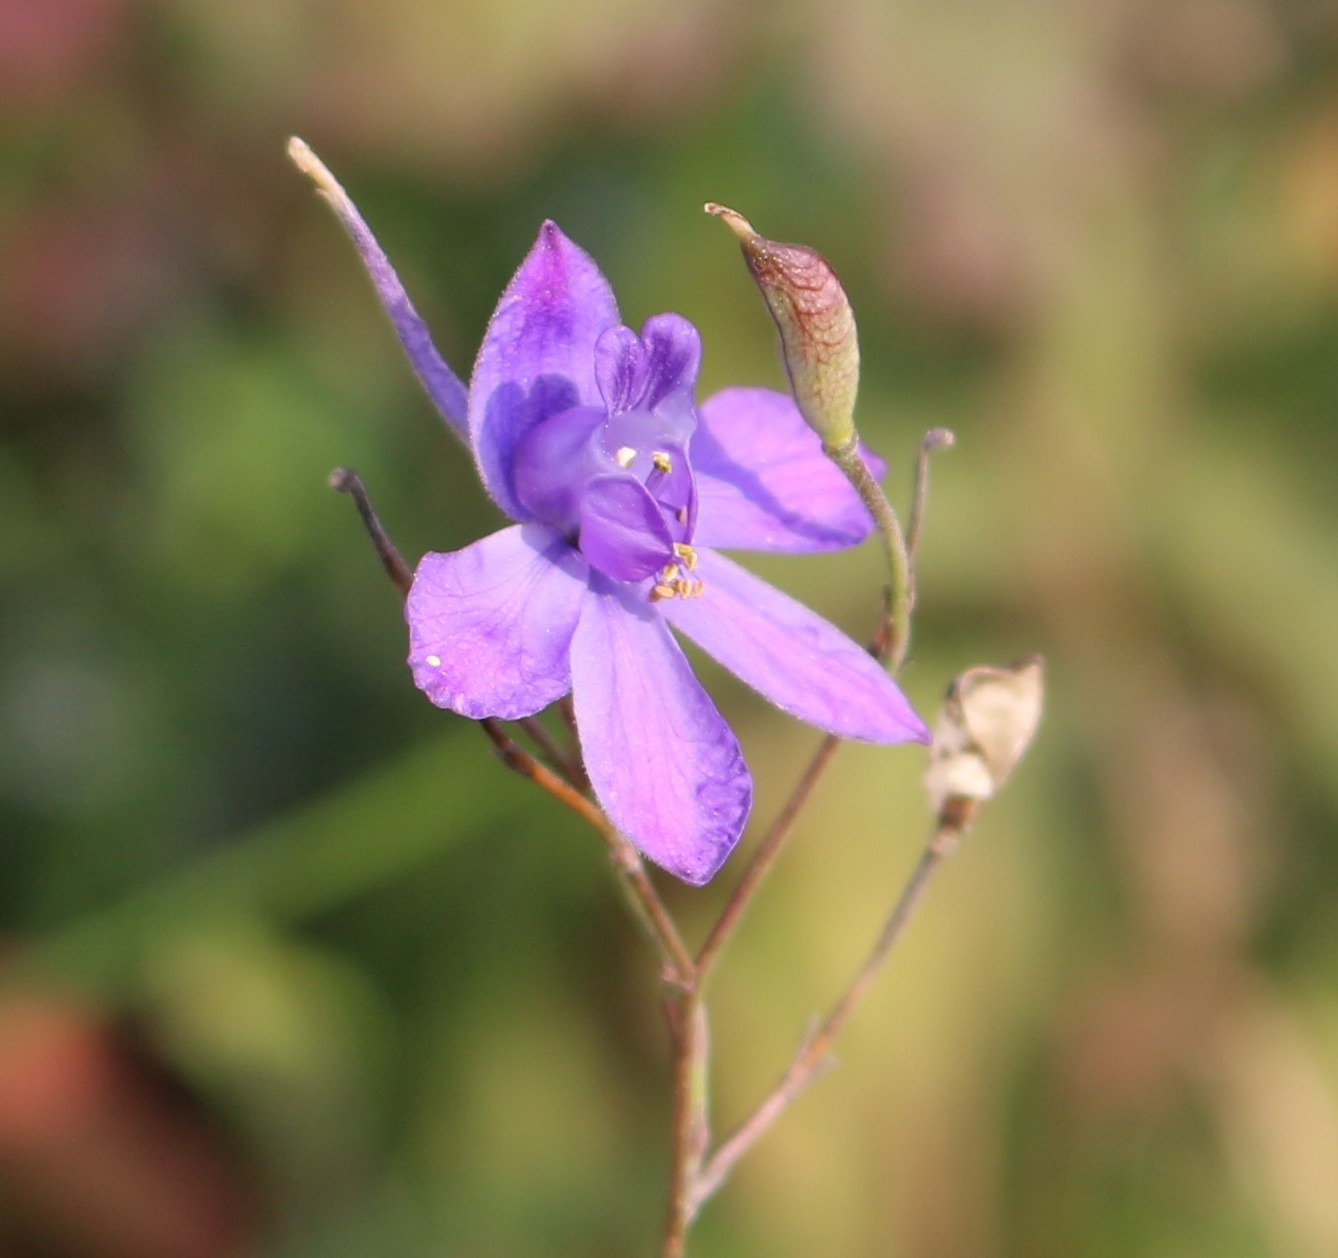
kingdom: Plantae
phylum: Tracheophyta
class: Magnoliopsida
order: Ranunculales
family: Ranunculaceae
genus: Delphinium
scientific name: Delphinium consolida
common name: Branching larkspur
